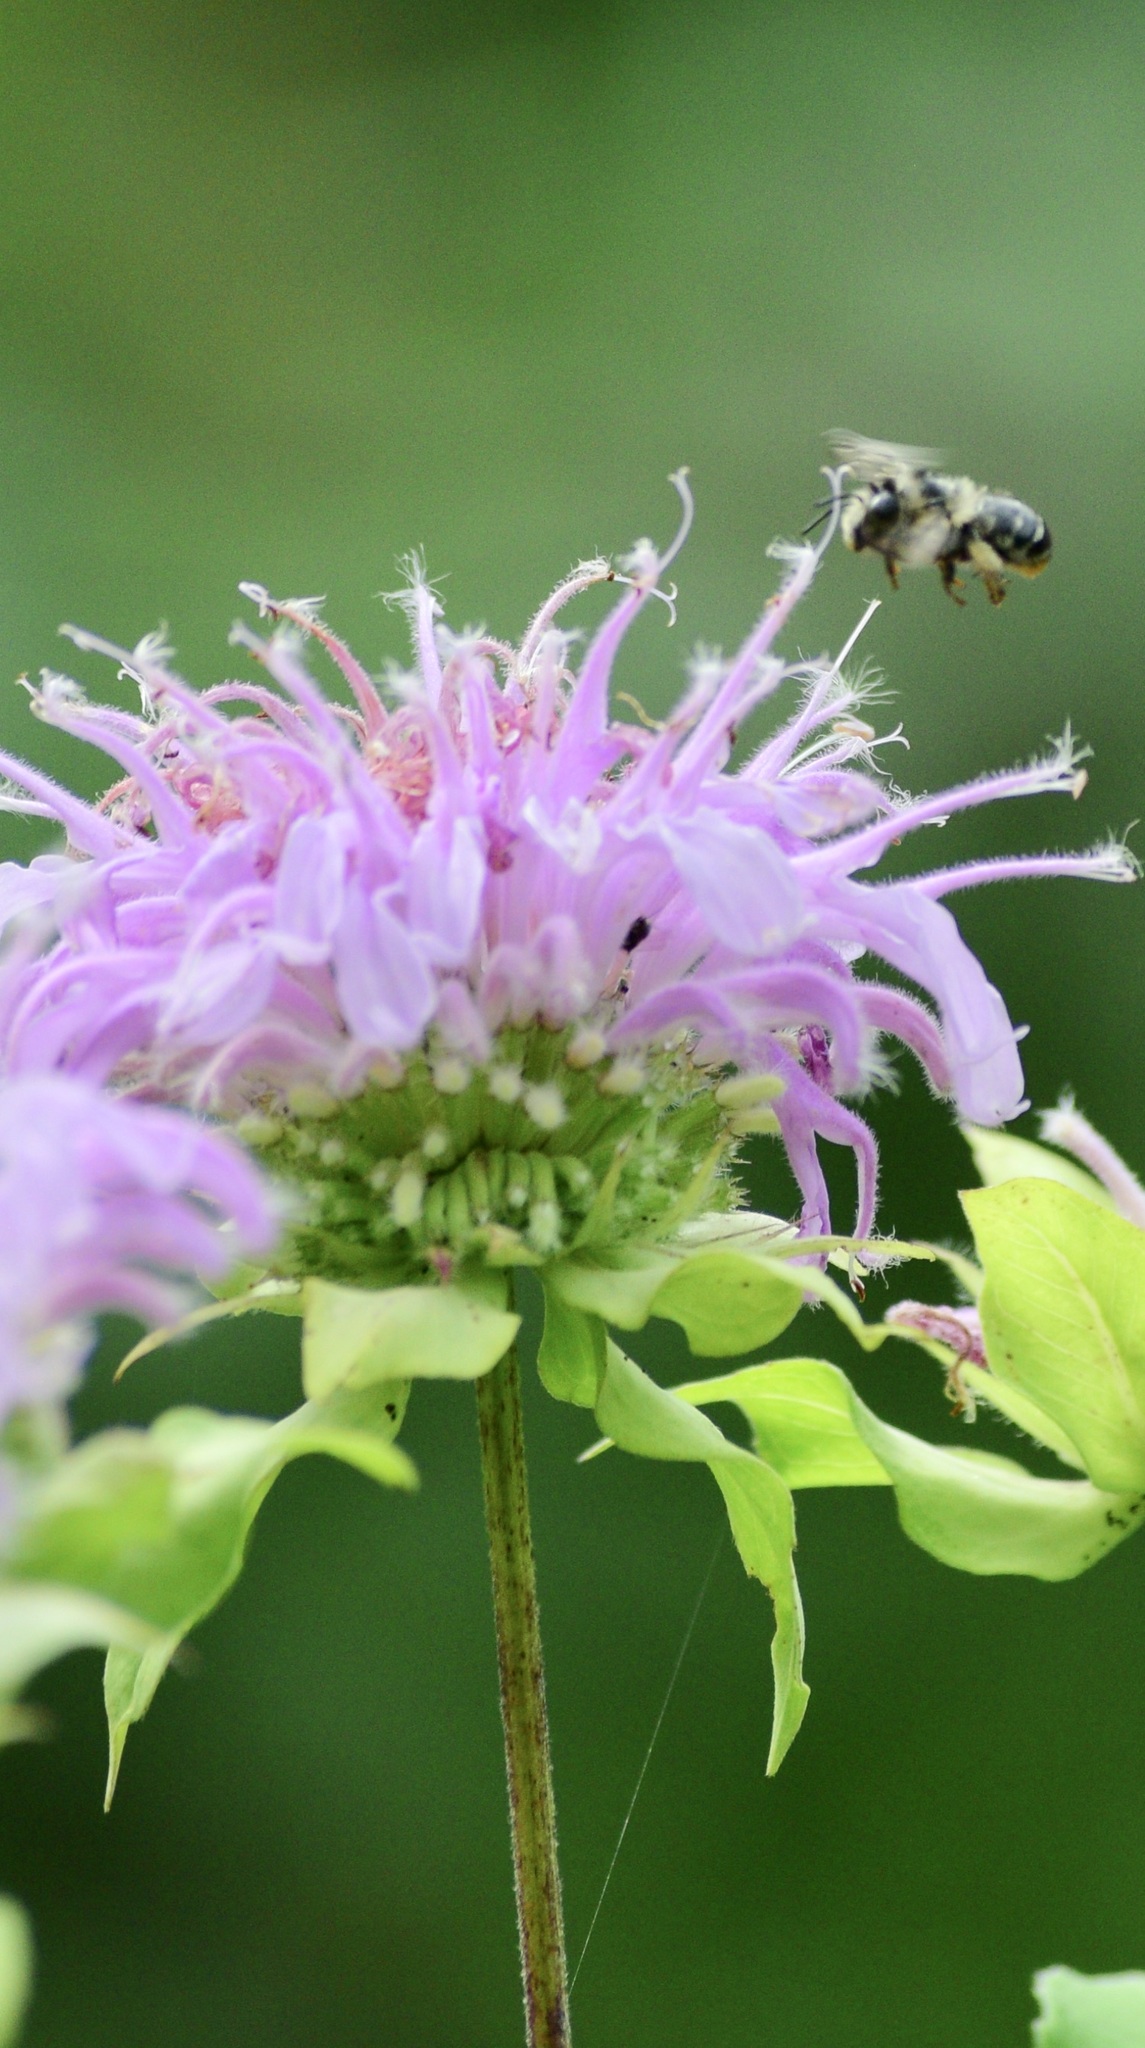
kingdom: Animalia
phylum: Arthropoda
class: Insecta
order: Hymenoptera
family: Apidae
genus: Anthophora
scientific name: Anthophora terminalis
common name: Orange-tipped wood-digger bee
